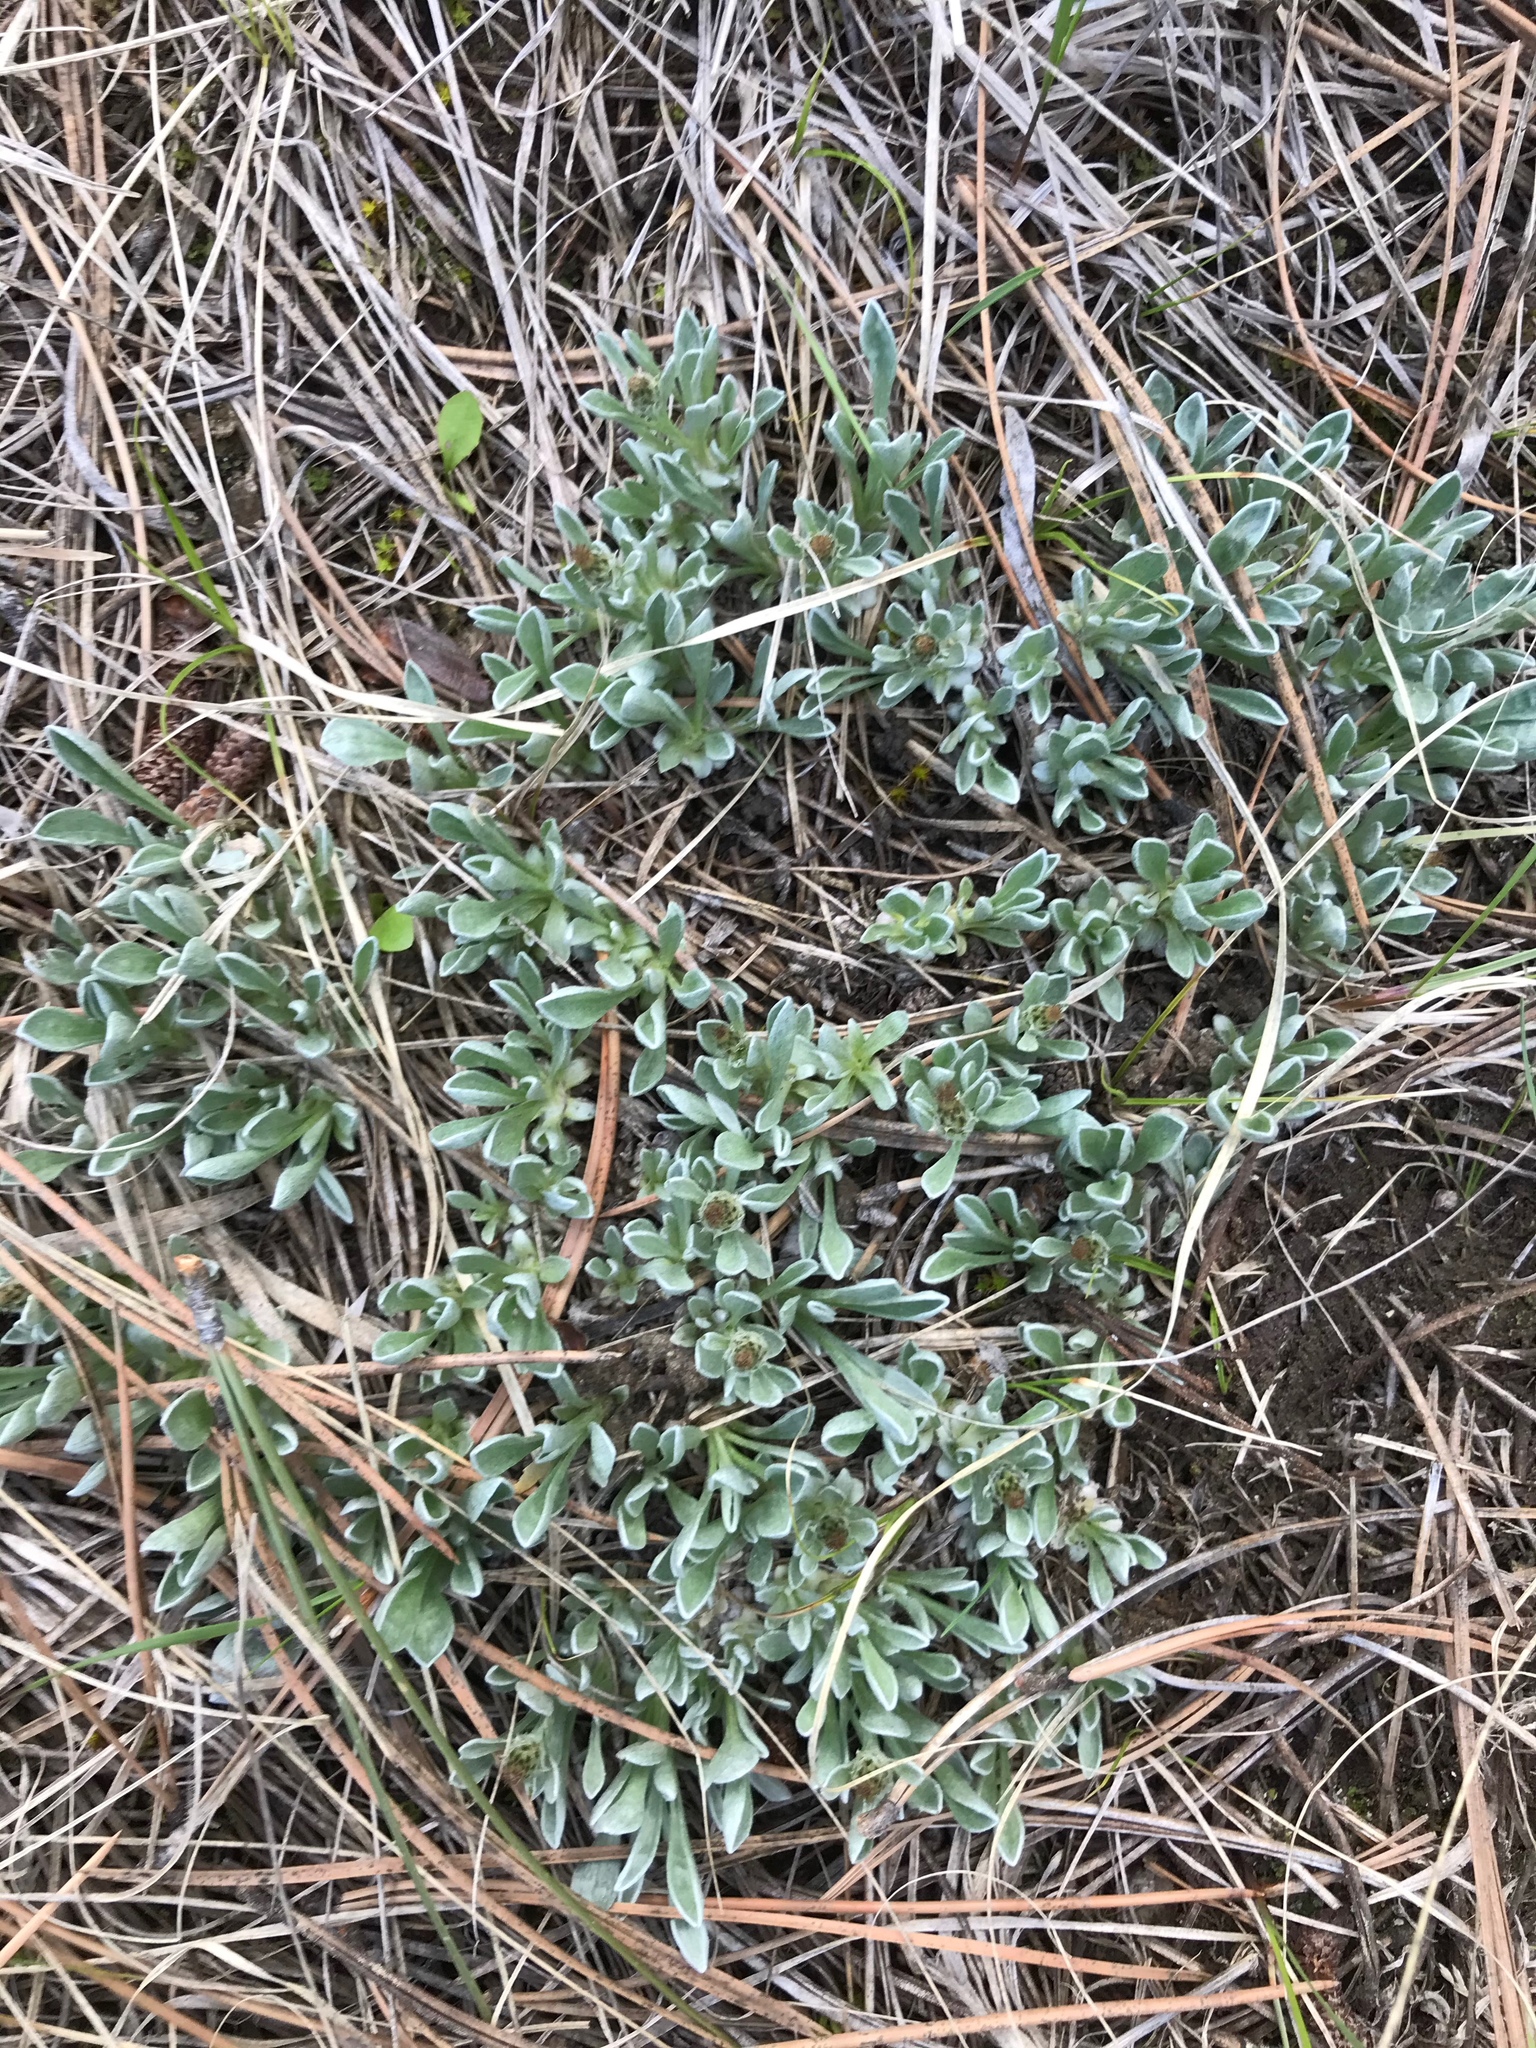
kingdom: Plantae
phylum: Tracheophyta
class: Magnoliopsida
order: Asterales
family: Asteraceae
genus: Antennaria
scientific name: Antennaria dimorpha
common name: Cushion pussytoes
